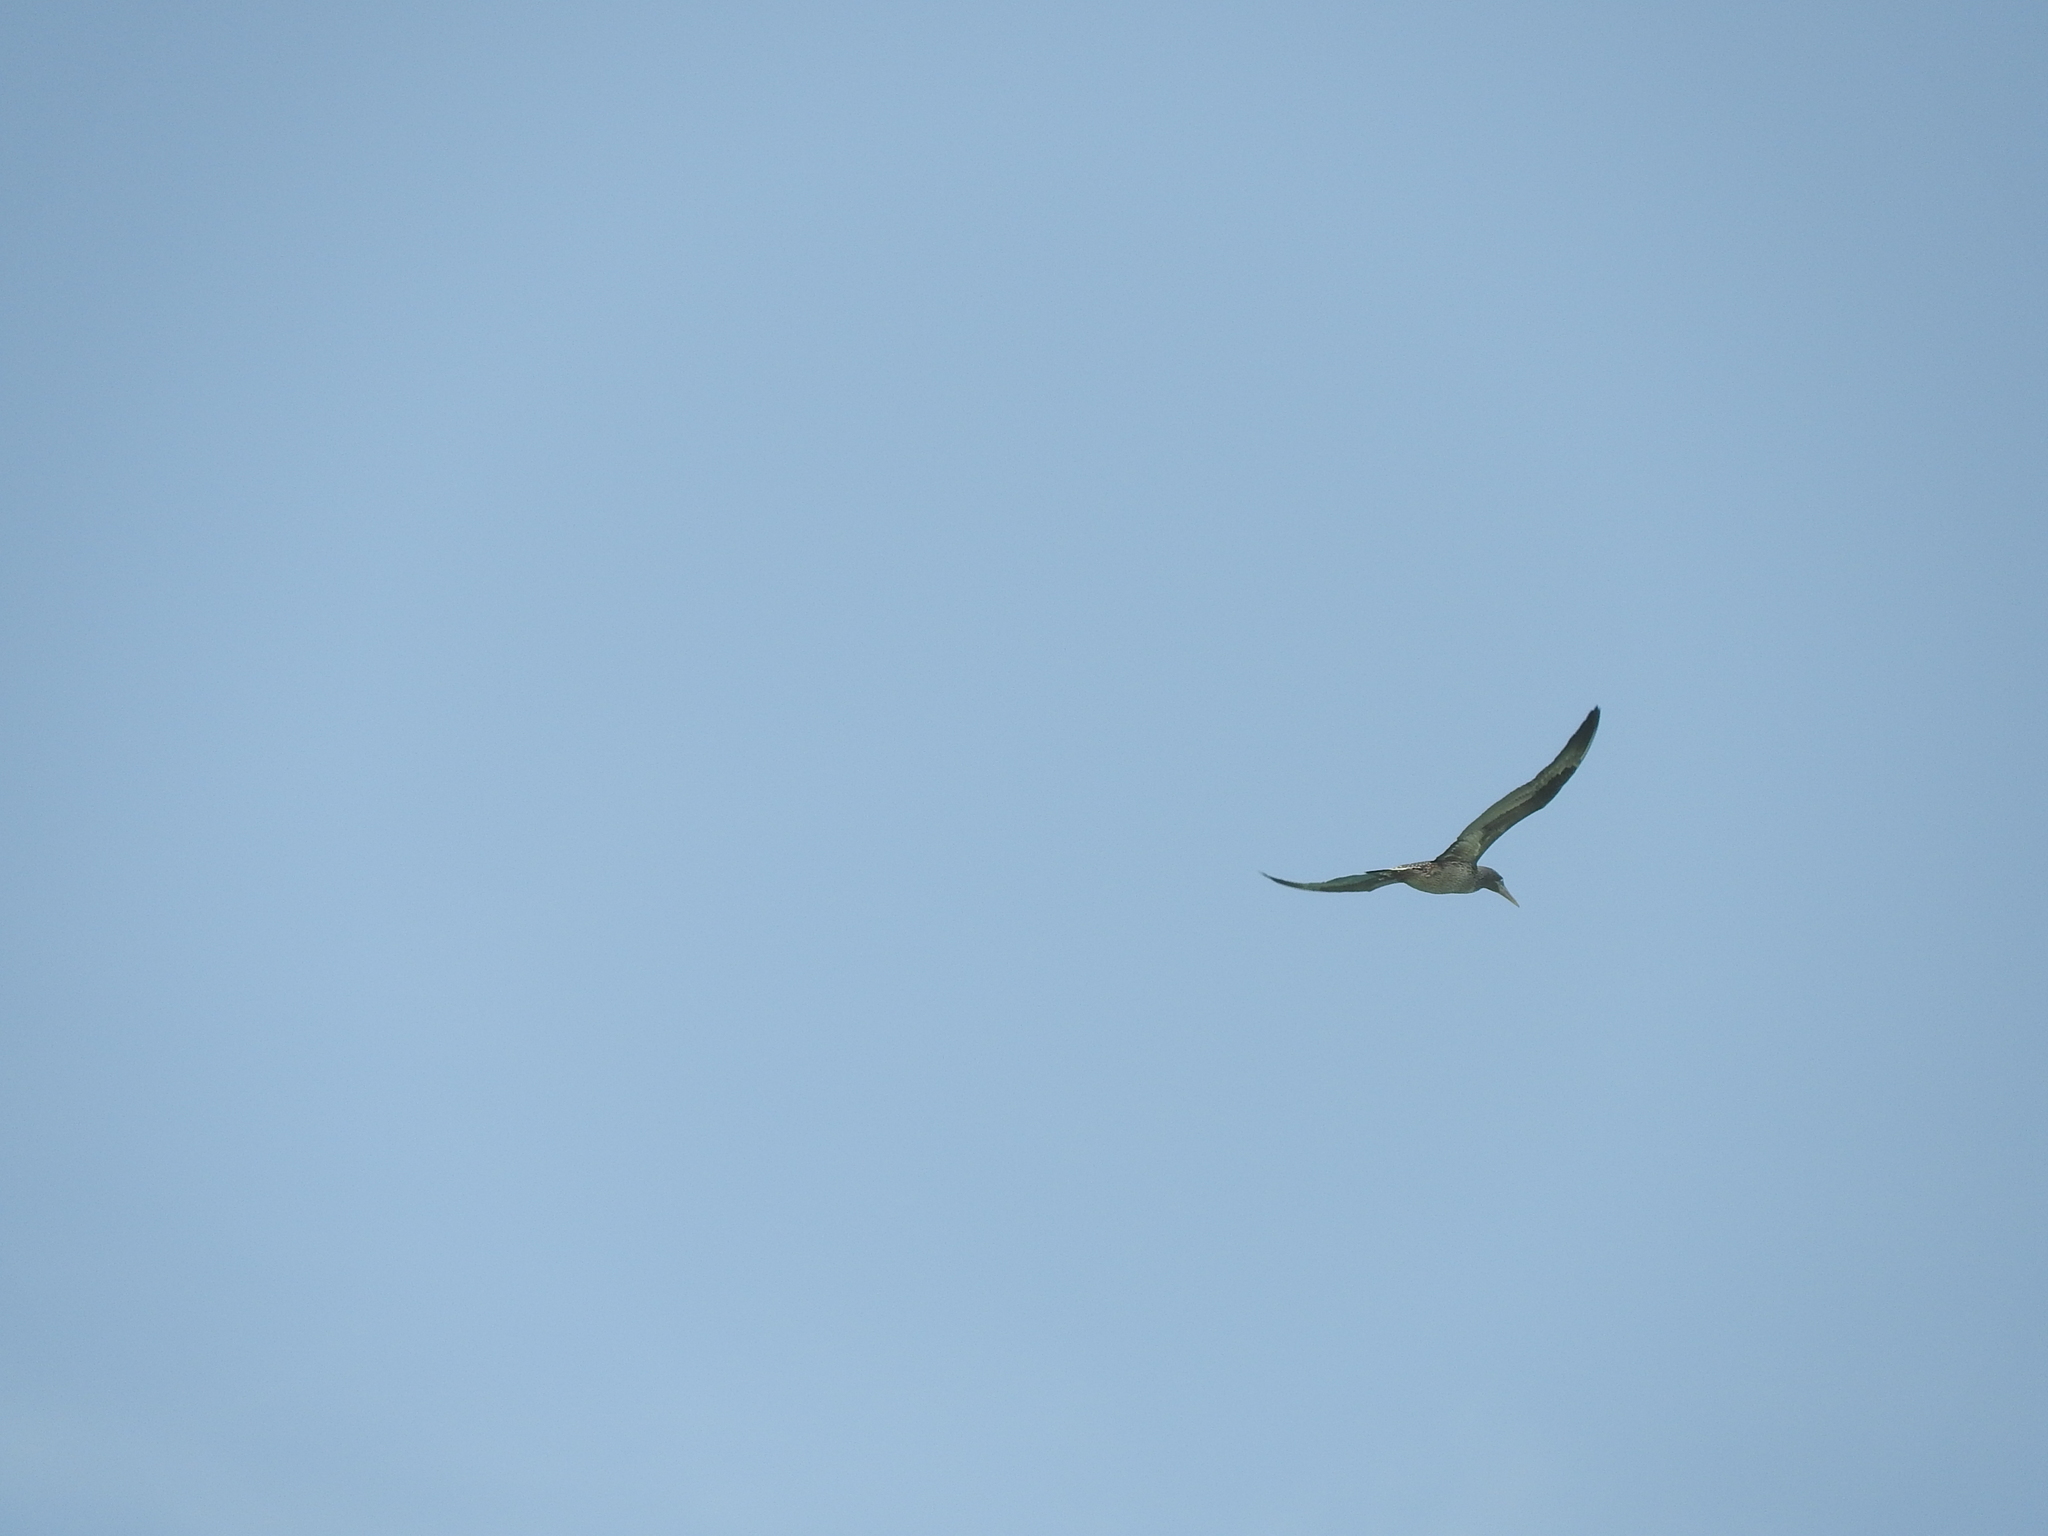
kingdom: Animalia
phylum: Chordata
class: Aves
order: Suliformes
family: Sulidae
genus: Morus
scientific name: Morus bassanus
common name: Northern gannet
